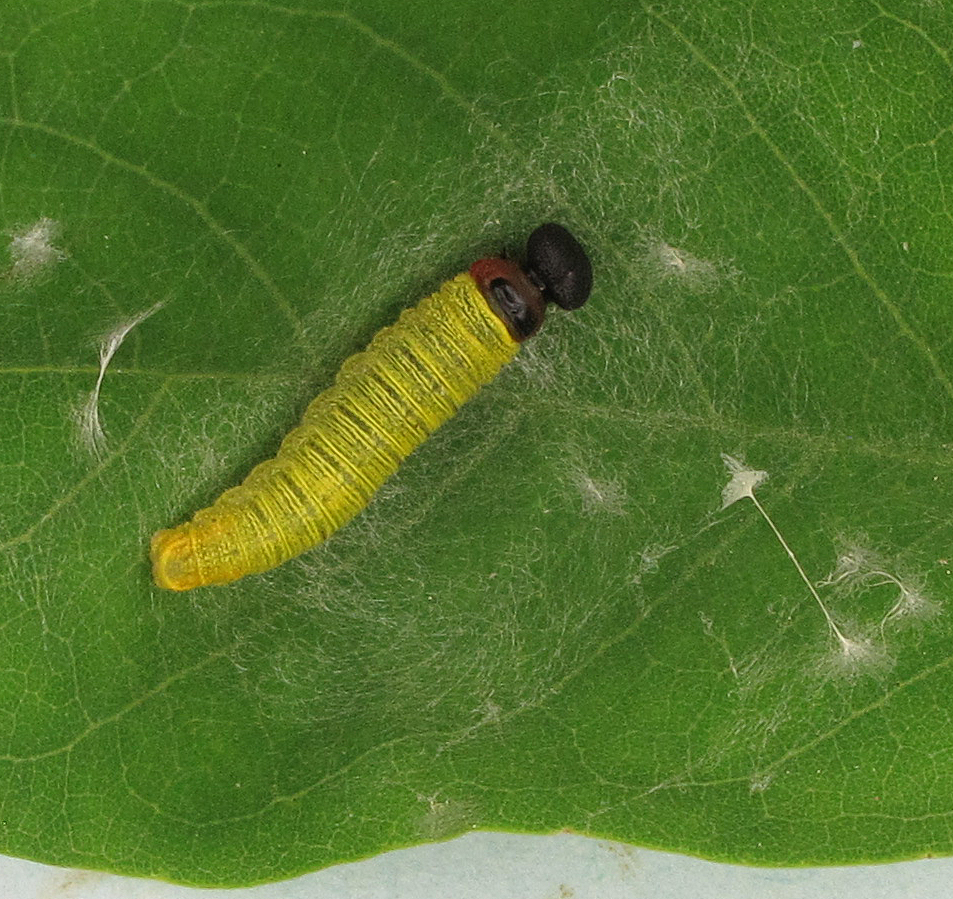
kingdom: Animalia
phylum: Arthropoda
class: Insecta
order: Lepidoptera
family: Hesperiidae
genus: Epargyreus
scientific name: Epargyreus clarus
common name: Silver-spotted skipper
